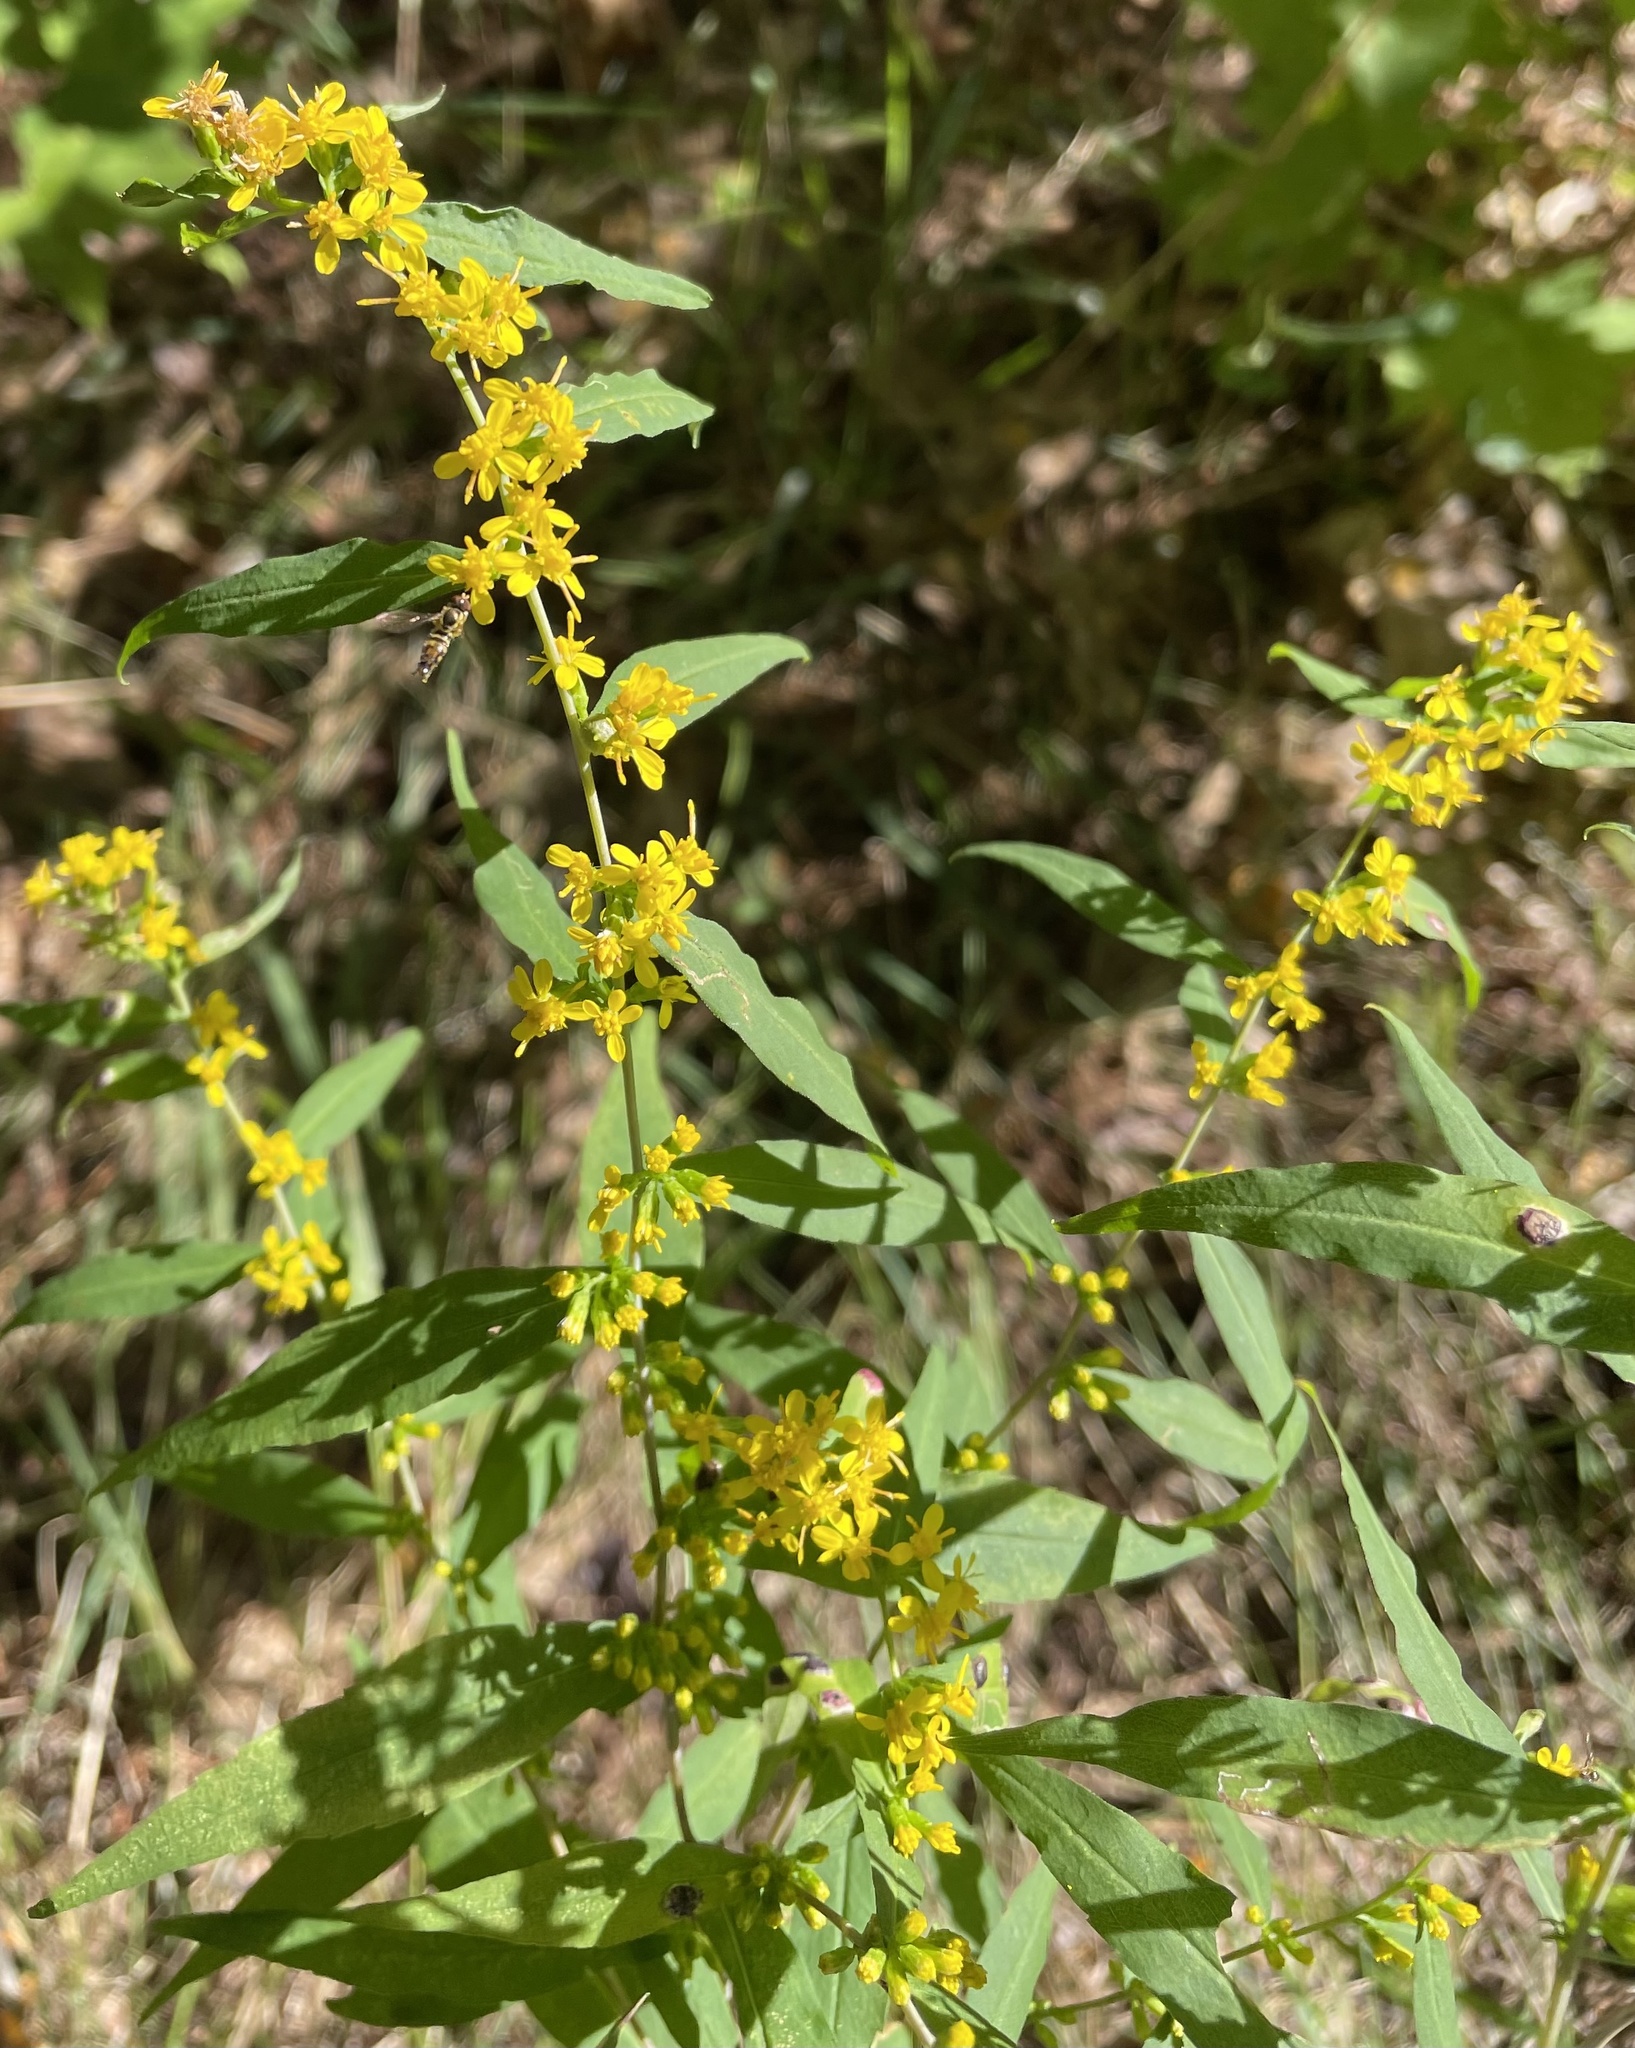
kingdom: Plantae
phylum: Tracheophyta
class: Magnoliopsida
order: Asterales
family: Asteraceae
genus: Solidago
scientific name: Solidago caesia
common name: Woodland goldenrod
